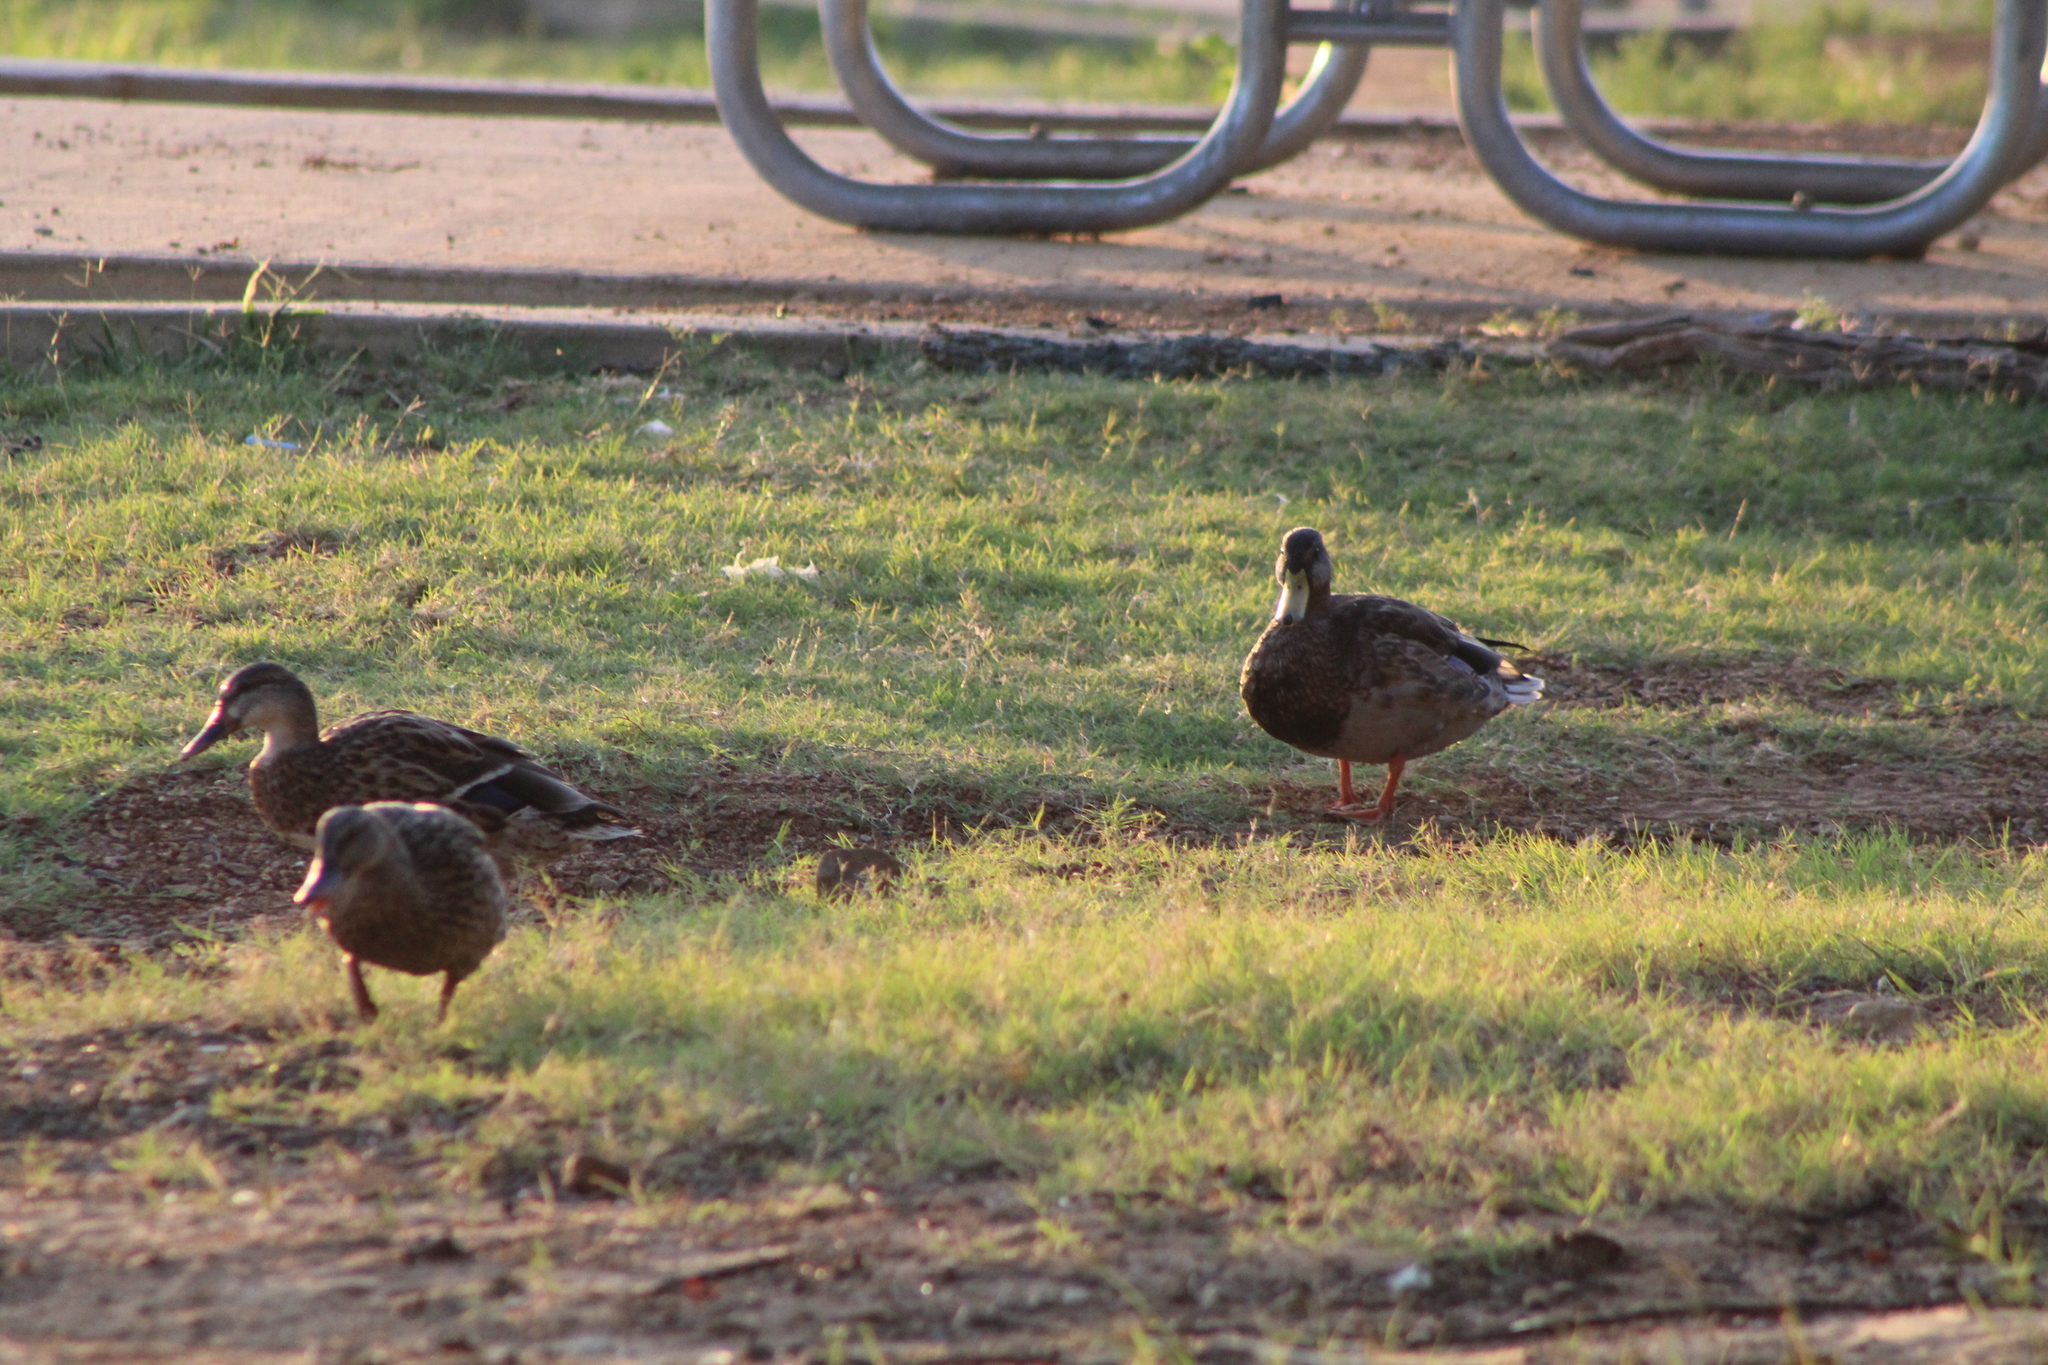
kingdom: Animalia
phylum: Chordata
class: Aves
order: Anseriformes
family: Anatidae
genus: Anas
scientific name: Anas platyrhynchos
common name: Mallard
